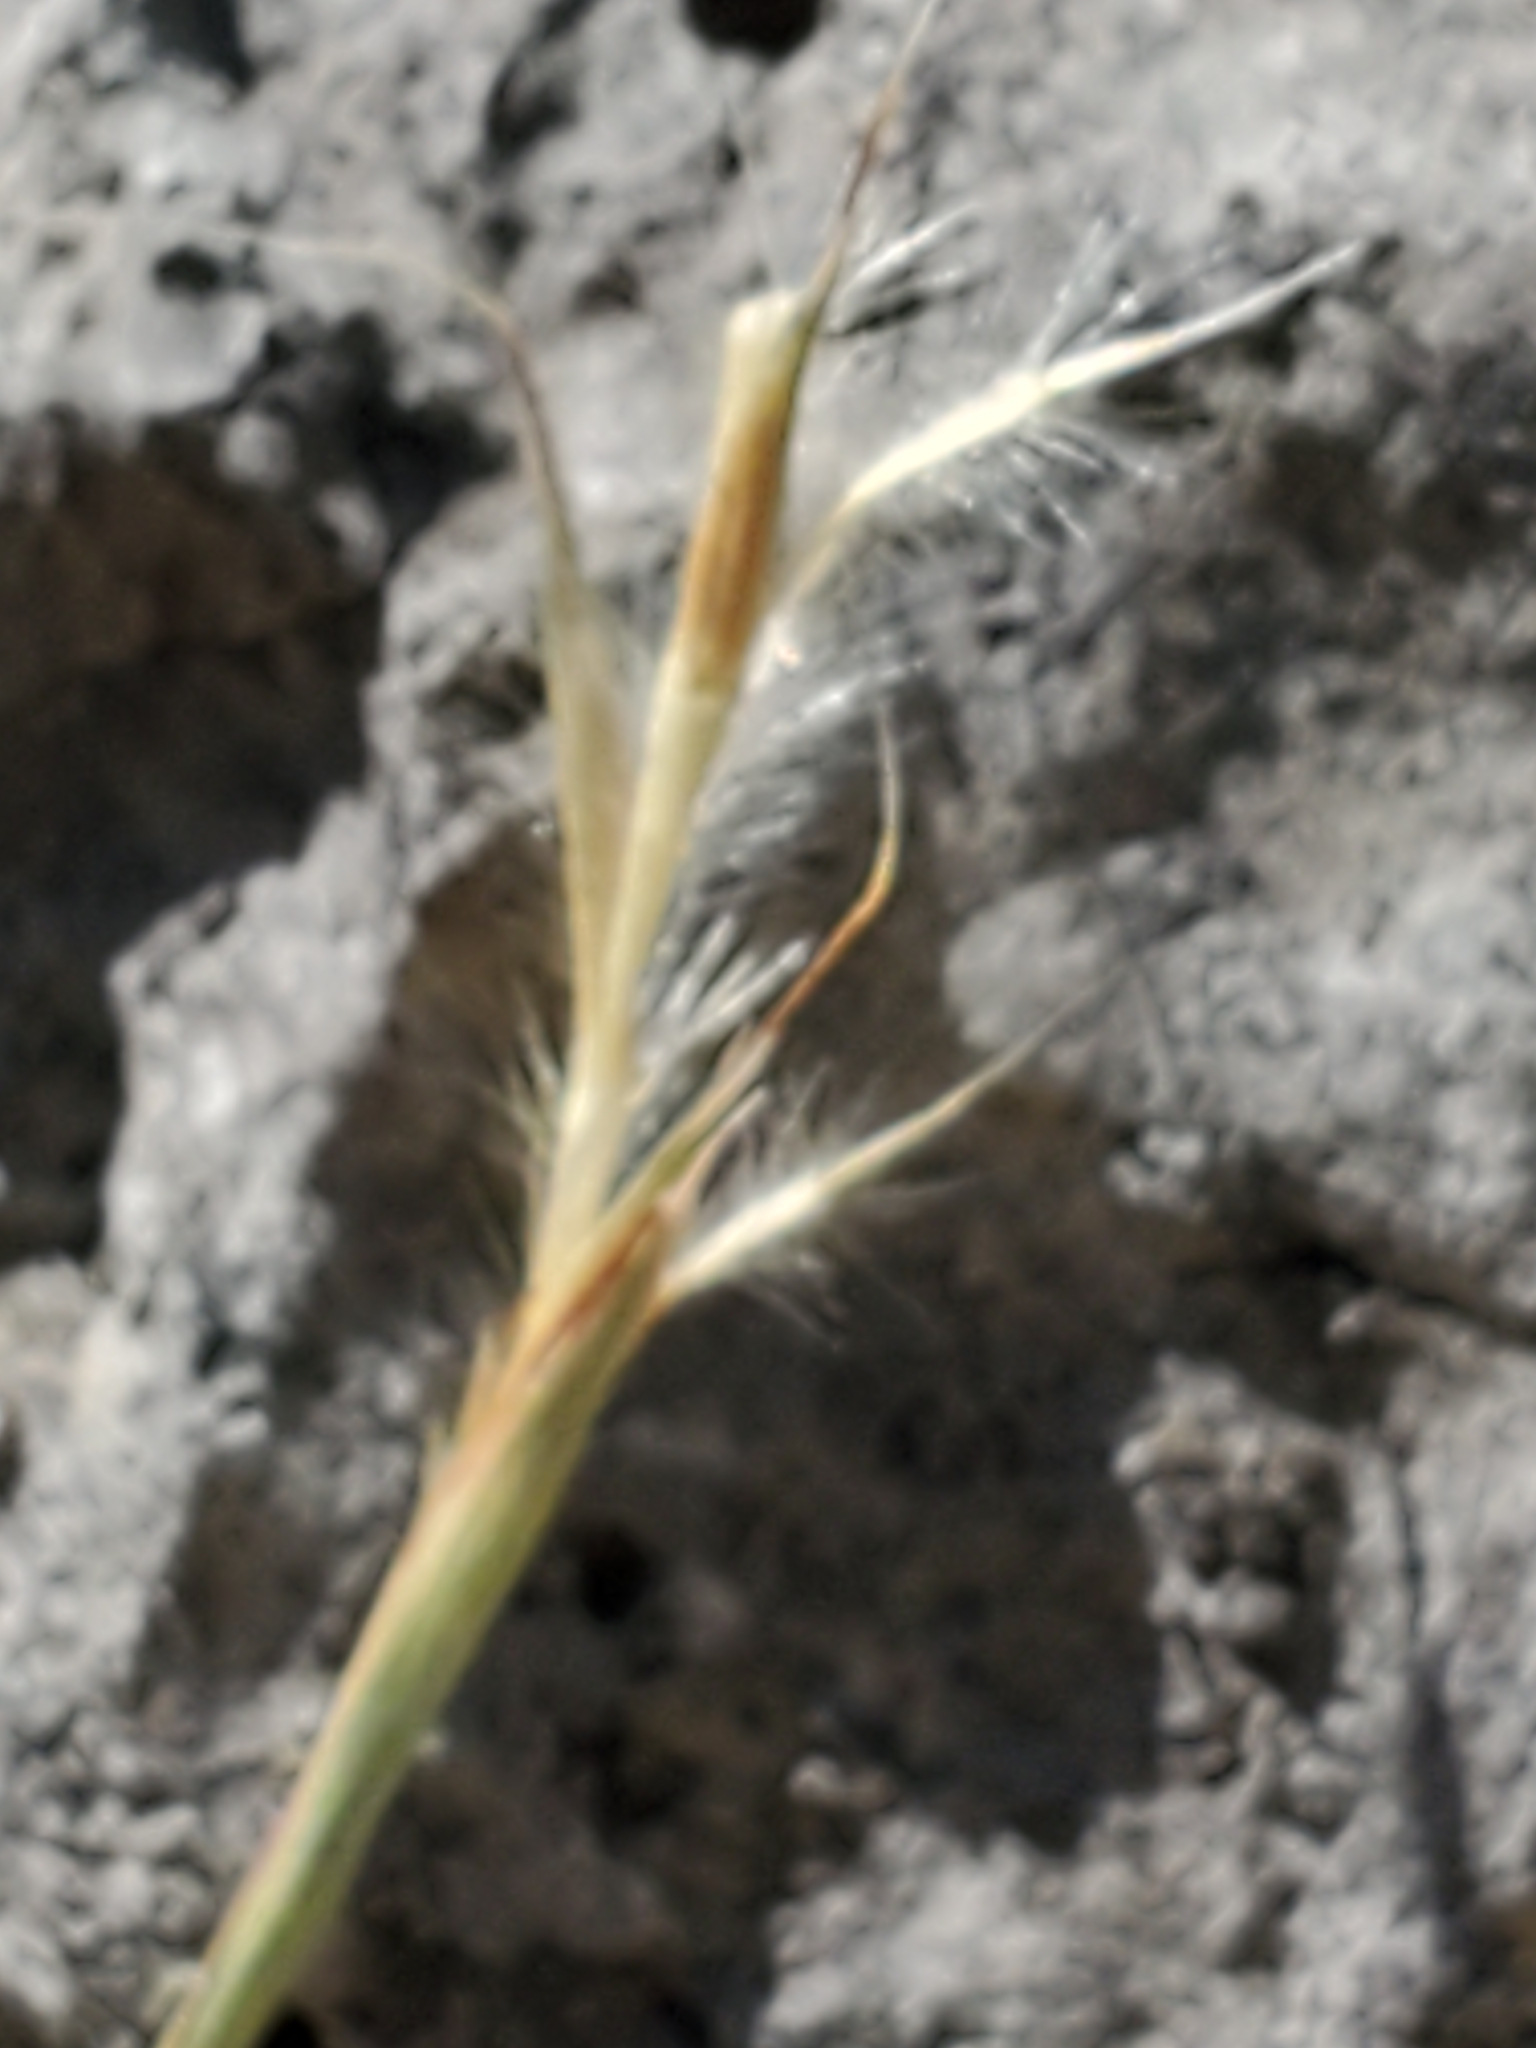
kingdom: Plantae
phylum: Tracheophyta
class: Liliopsida
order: Poales
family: Poaceae
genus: Schizachyrium
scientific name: Schizachyrium scoparium
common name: Little bluestem
